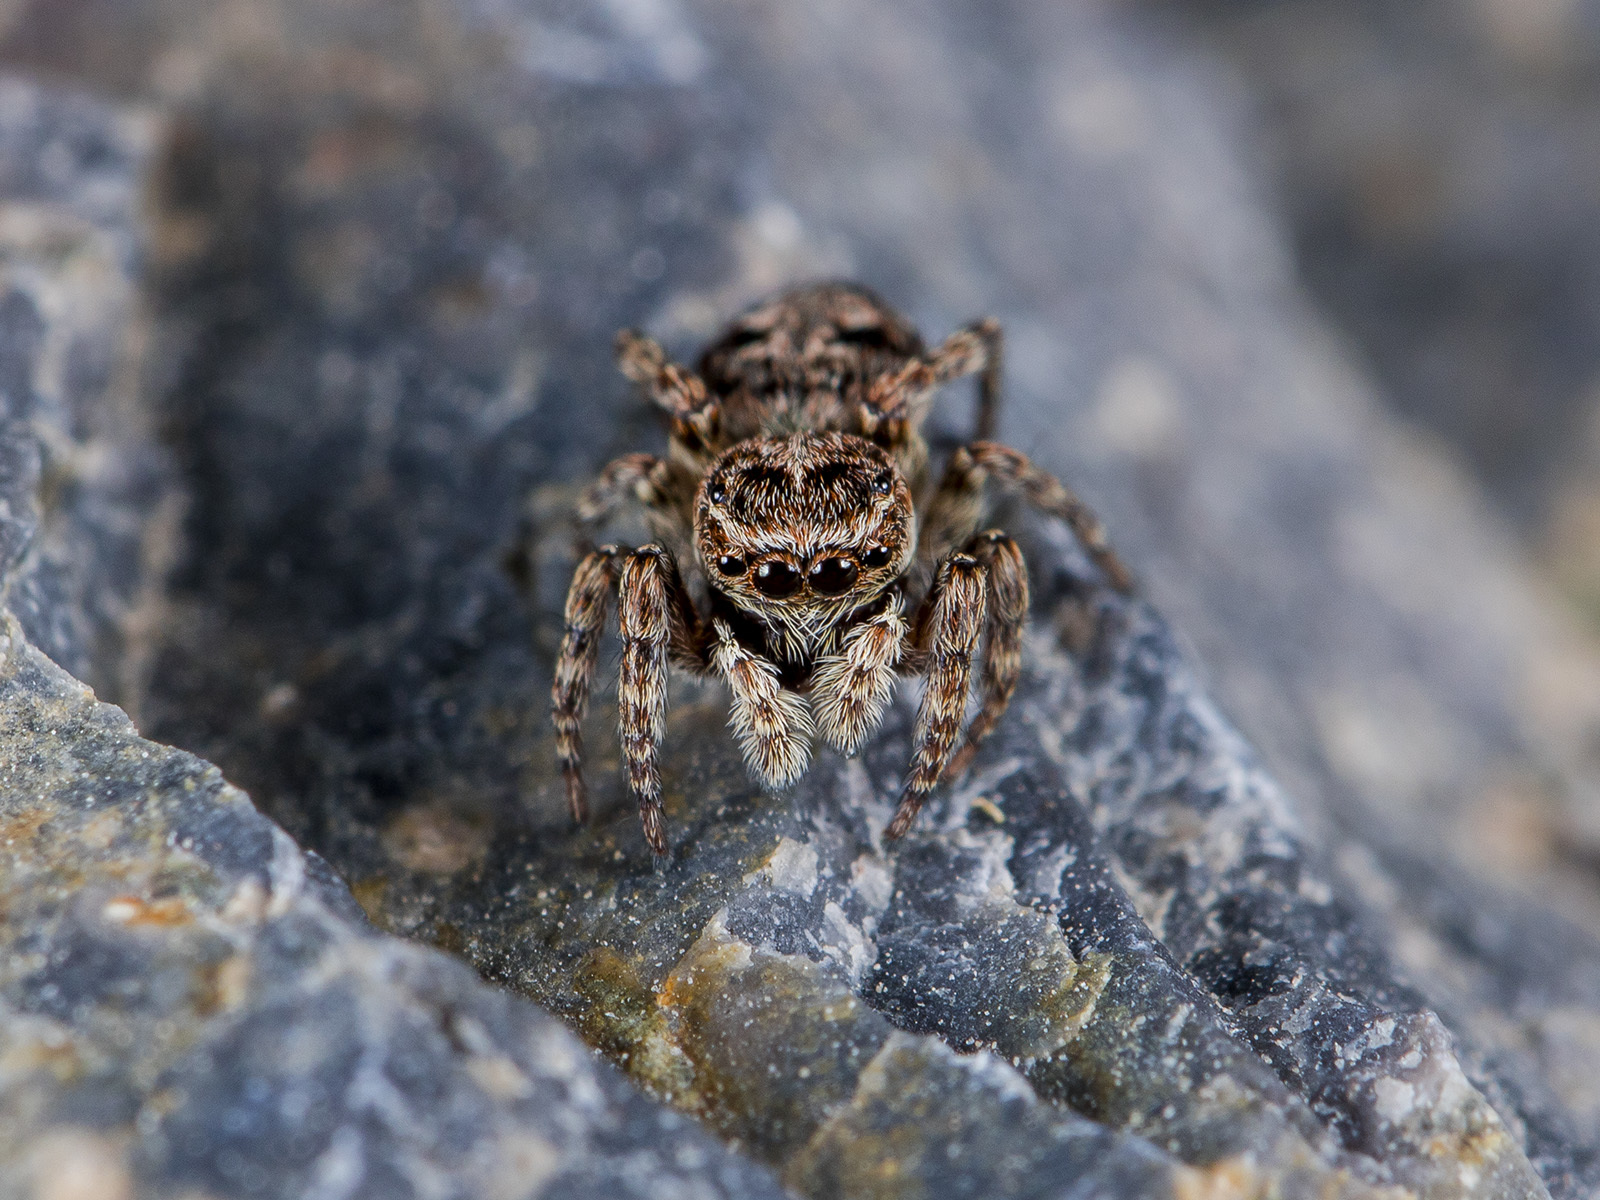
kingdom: Animalia
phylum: Arthropoda
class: Arachnida
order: Araneae
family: Salticidae
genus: Attulus
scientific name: Attulus monstrabilis
